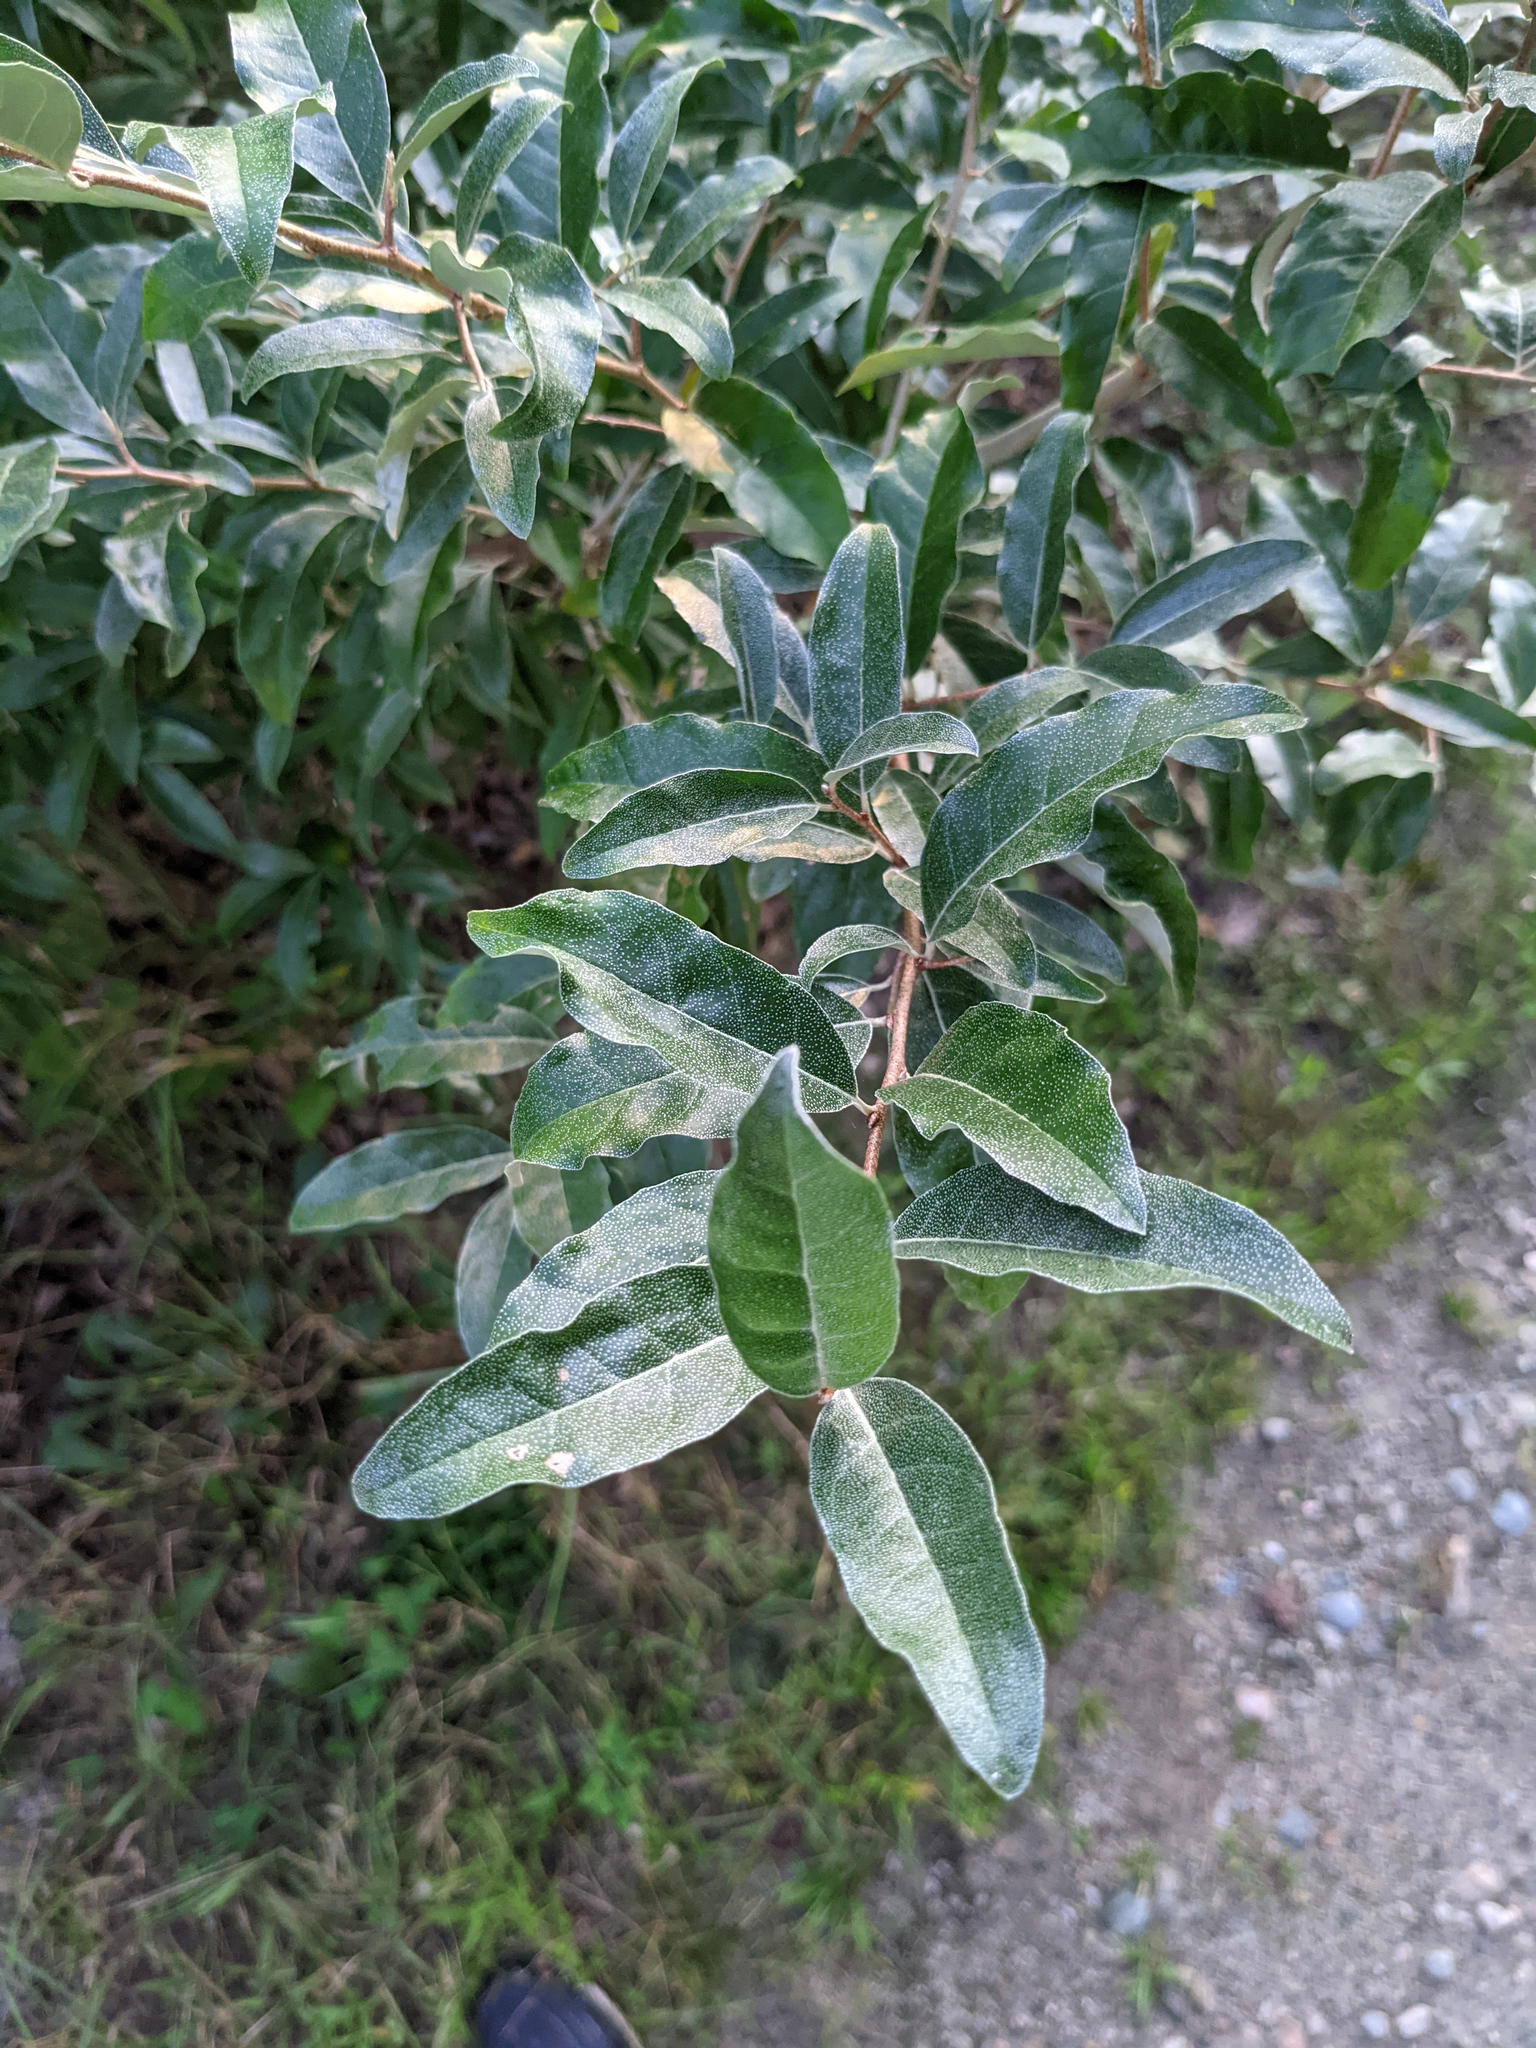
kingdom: Plantae
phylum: Tracheophyta
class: Magnoliopsida
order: Rosales
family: Elaeagnaceae
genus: Elaeagnus
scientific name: Elaeagnus umbellata
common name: Autumn olive
